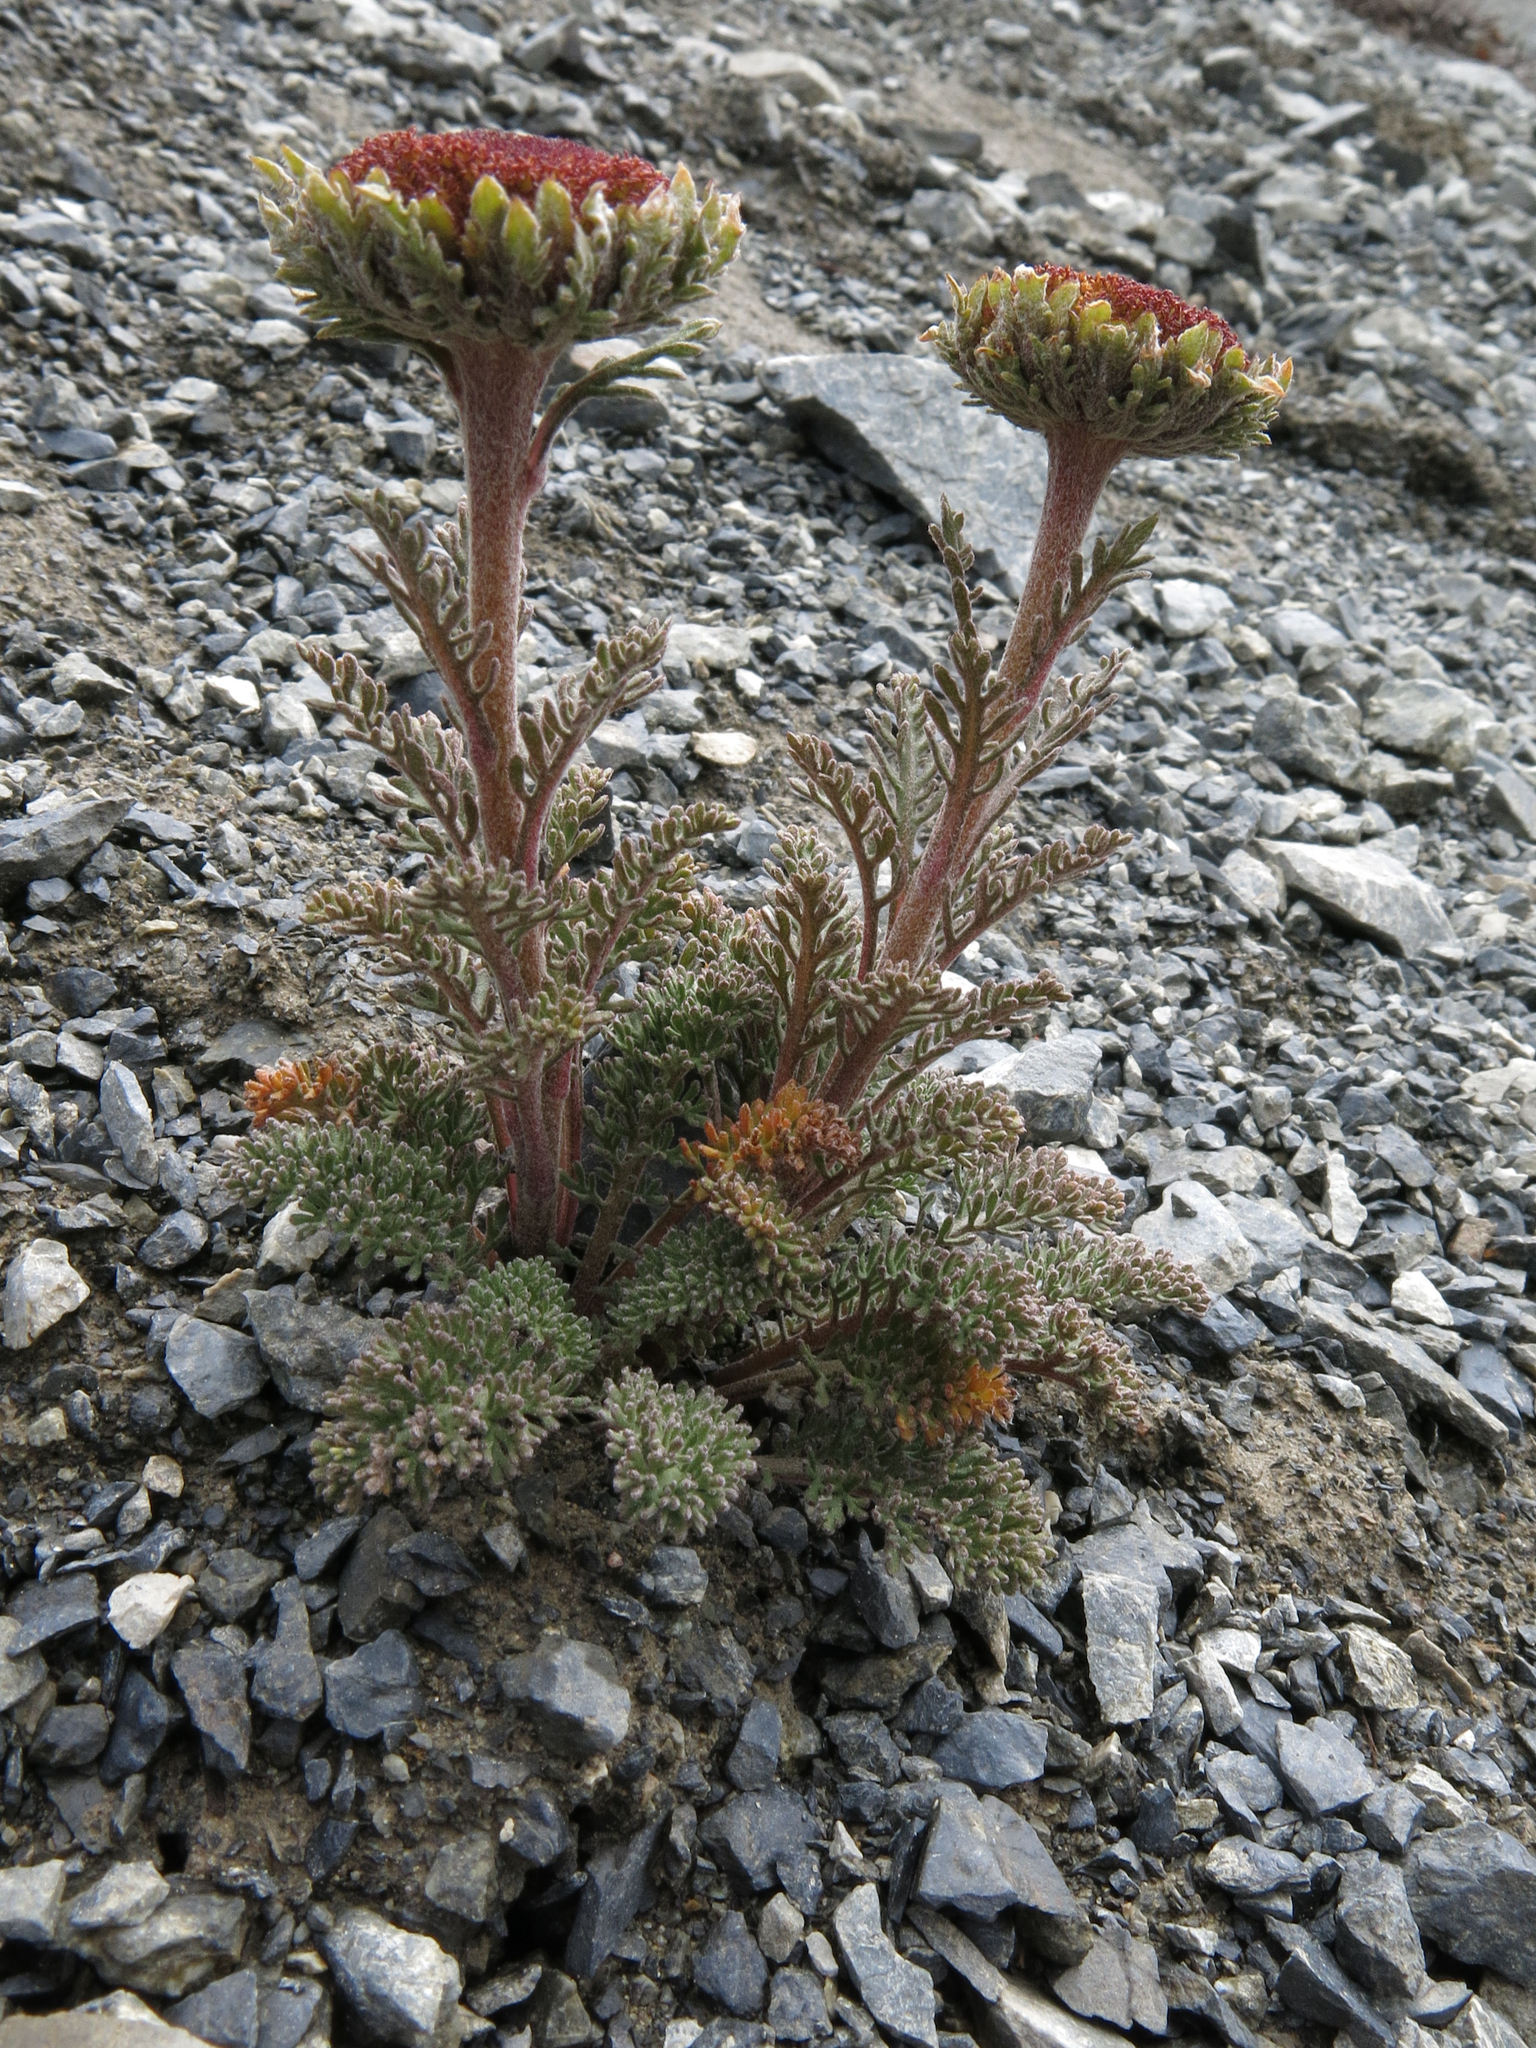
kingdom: Plantae
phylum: Tracheophyta
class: Magnoliopsida
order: Asterales
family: Asteraceae
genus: Leptinella
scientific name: Leptinella dendyi
